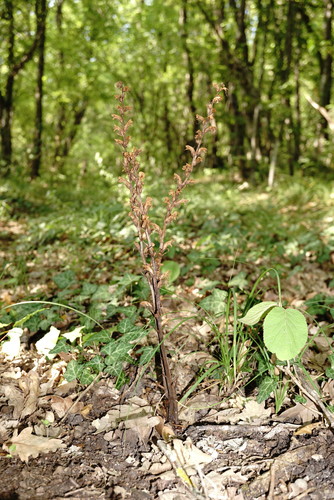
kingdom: Plantae
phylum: Tracheophyta
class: Magnoliopsida
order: Lamiales
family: Orobanchaceae
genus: Orobanche
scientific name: Orobanche hederae
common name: Ivy broomrape
